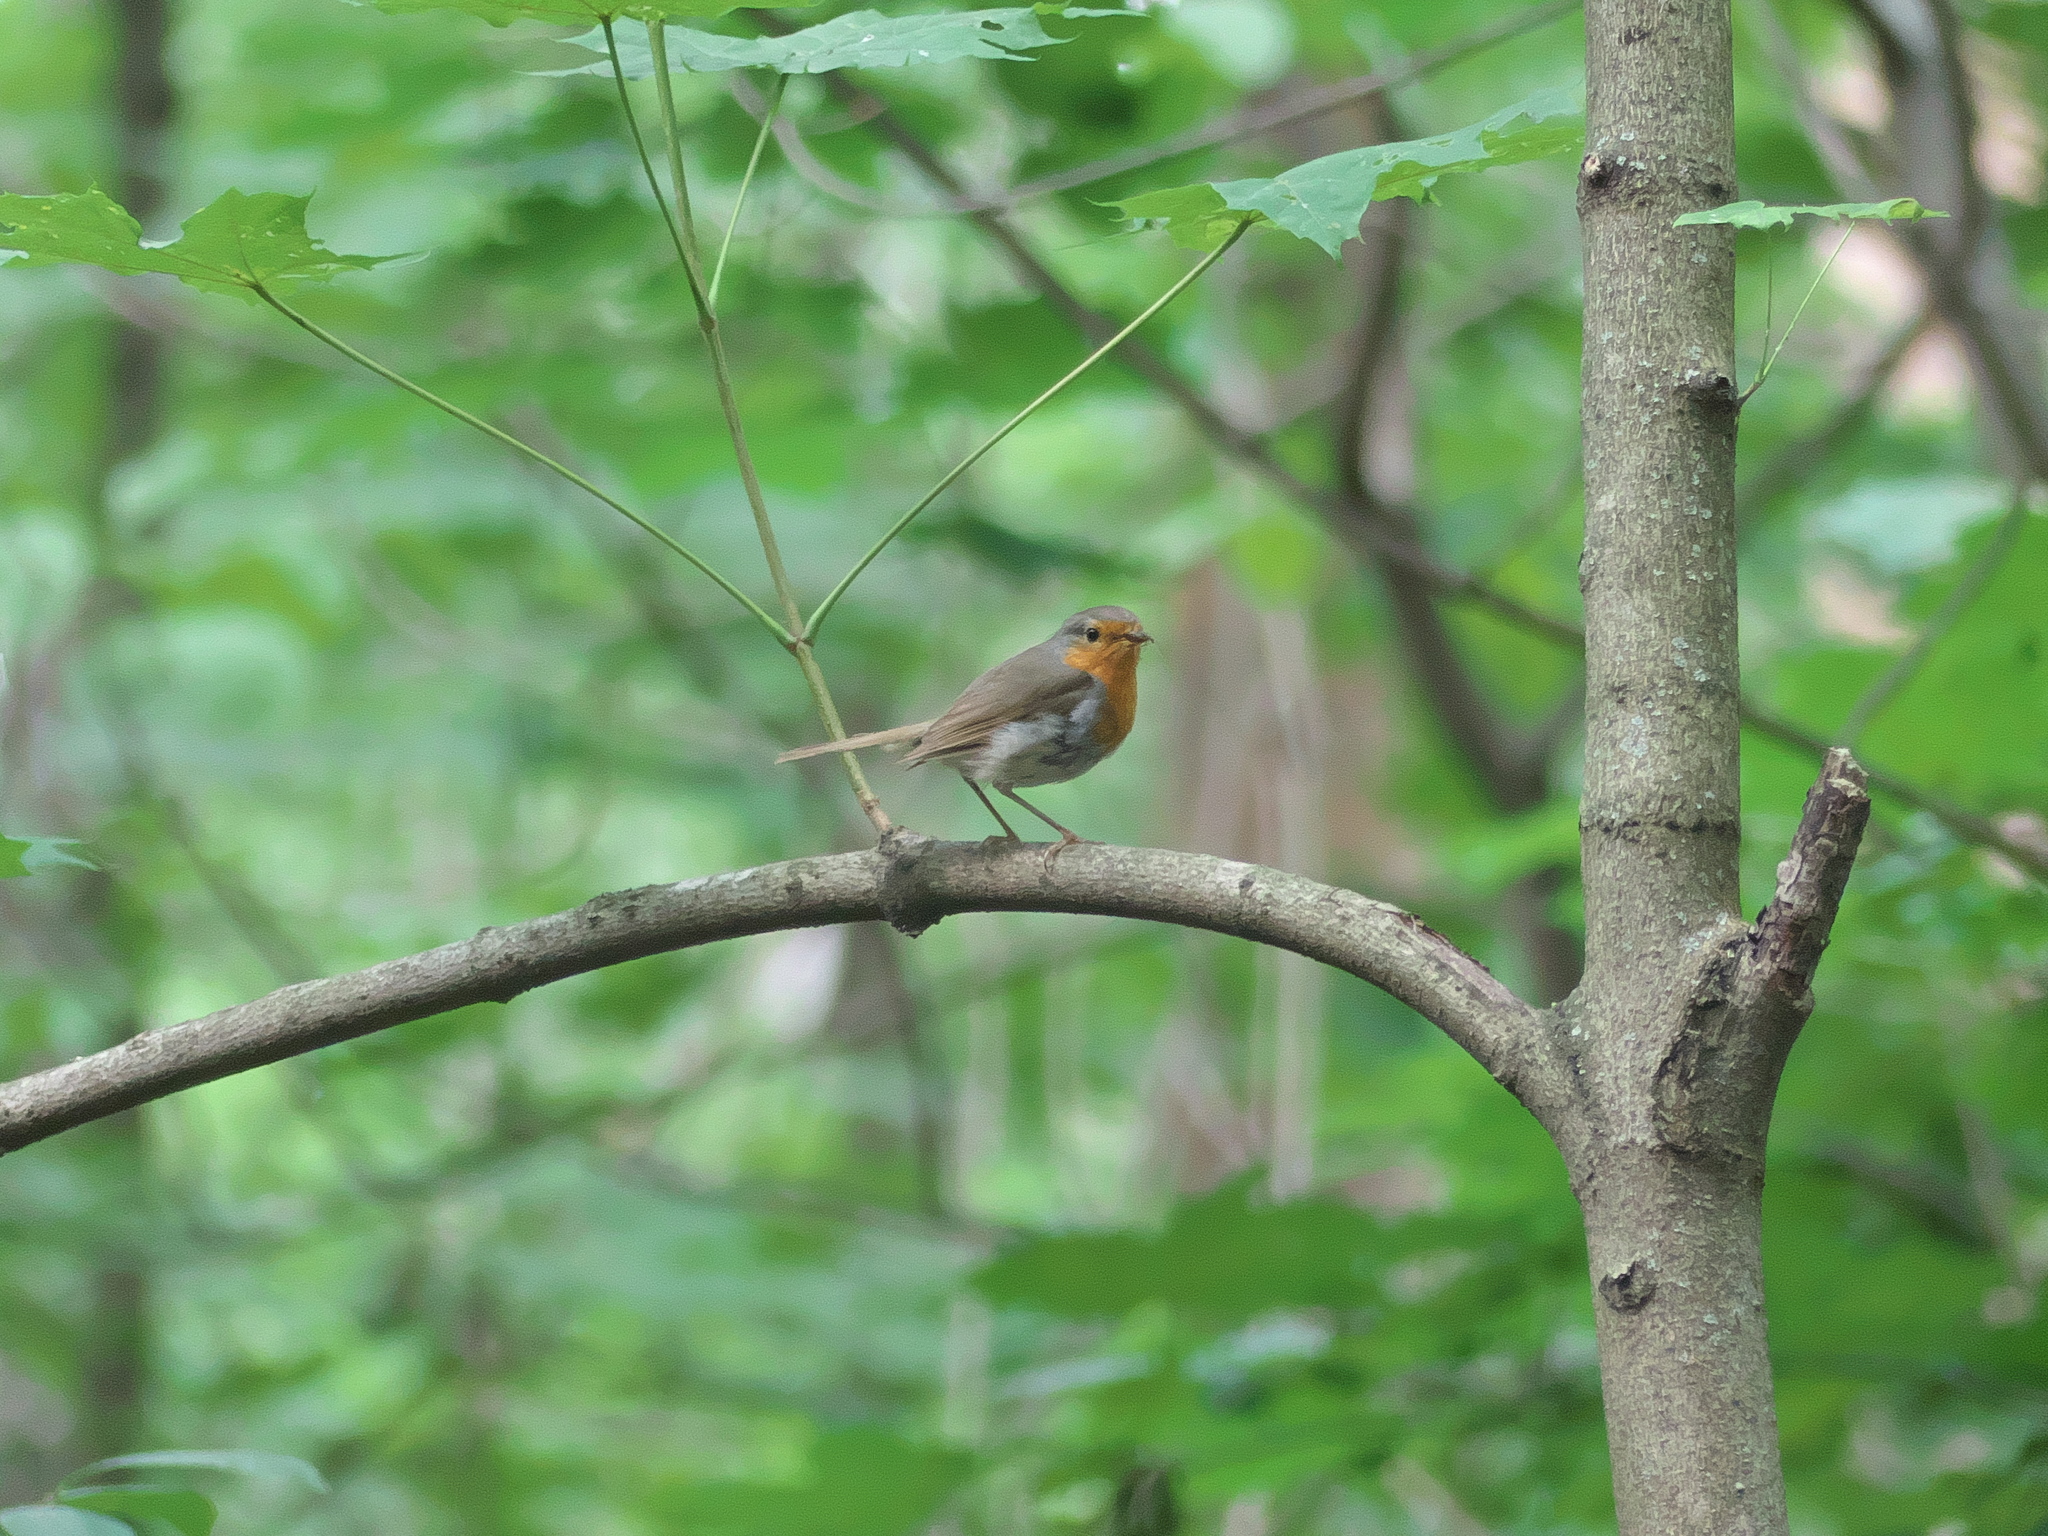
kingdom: Animalia
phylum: Chordata
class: Aves
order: Passeriformes
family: Muscicapidae
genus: Erithacus
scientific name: Erithacus rubecula
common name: European robin
